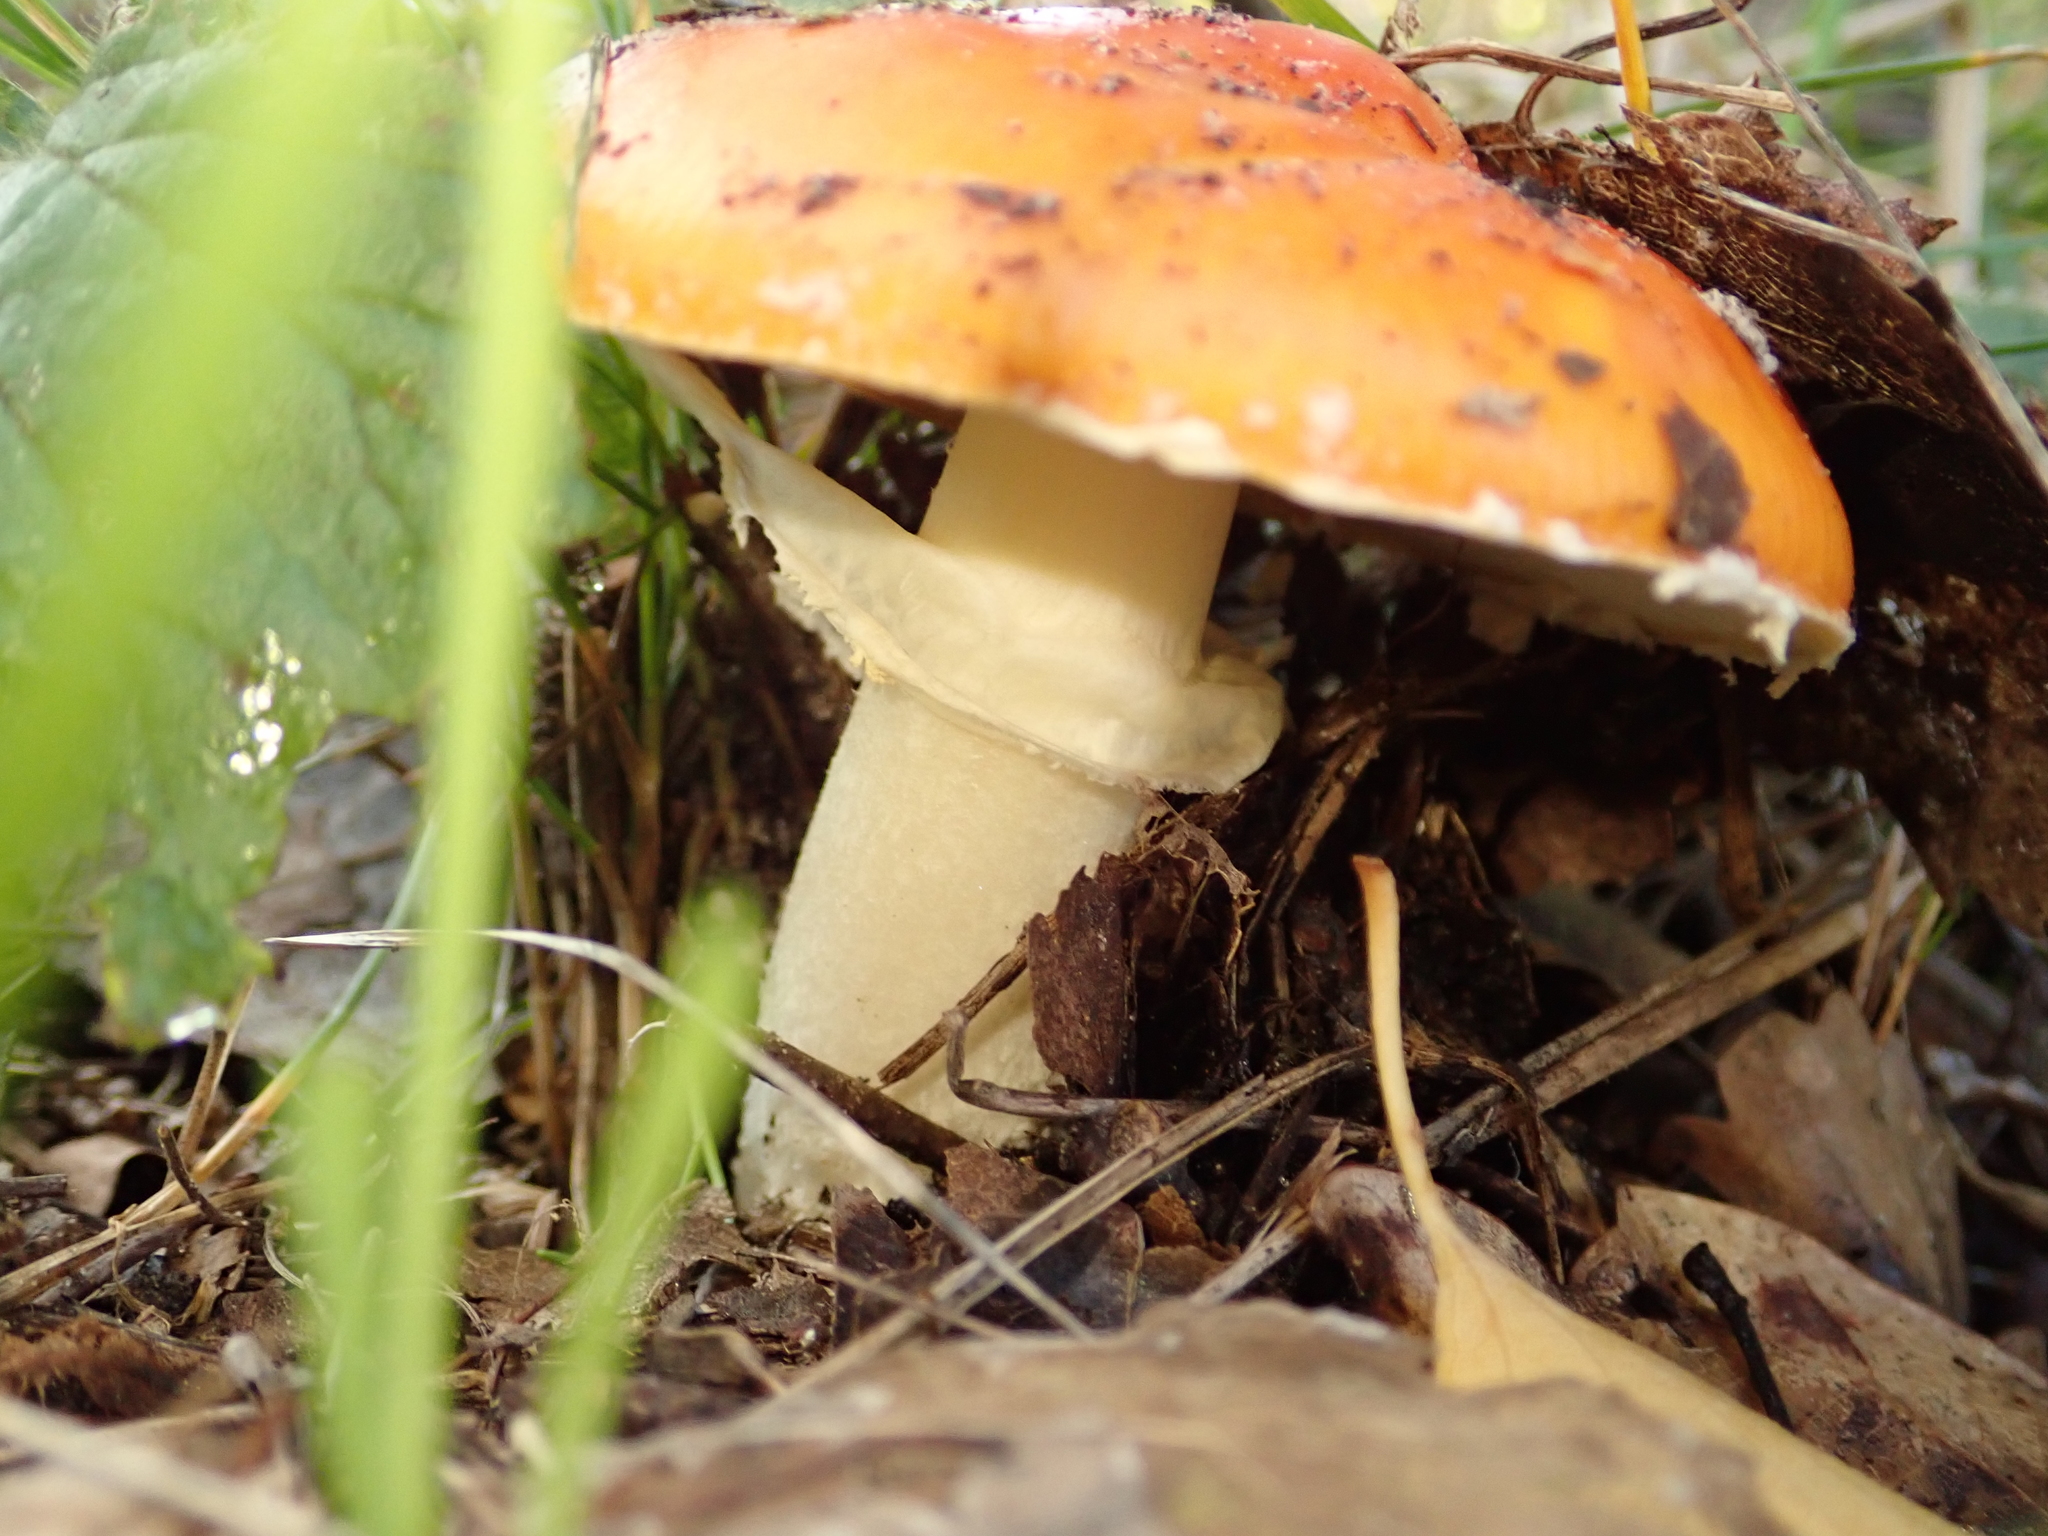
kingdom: Fungi
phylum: Basidiomycota
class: Agaricomycetes
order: Agaricales
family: Amanitaceae
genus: Amanita
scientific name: Amanita muscaria
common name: Fly agaric
